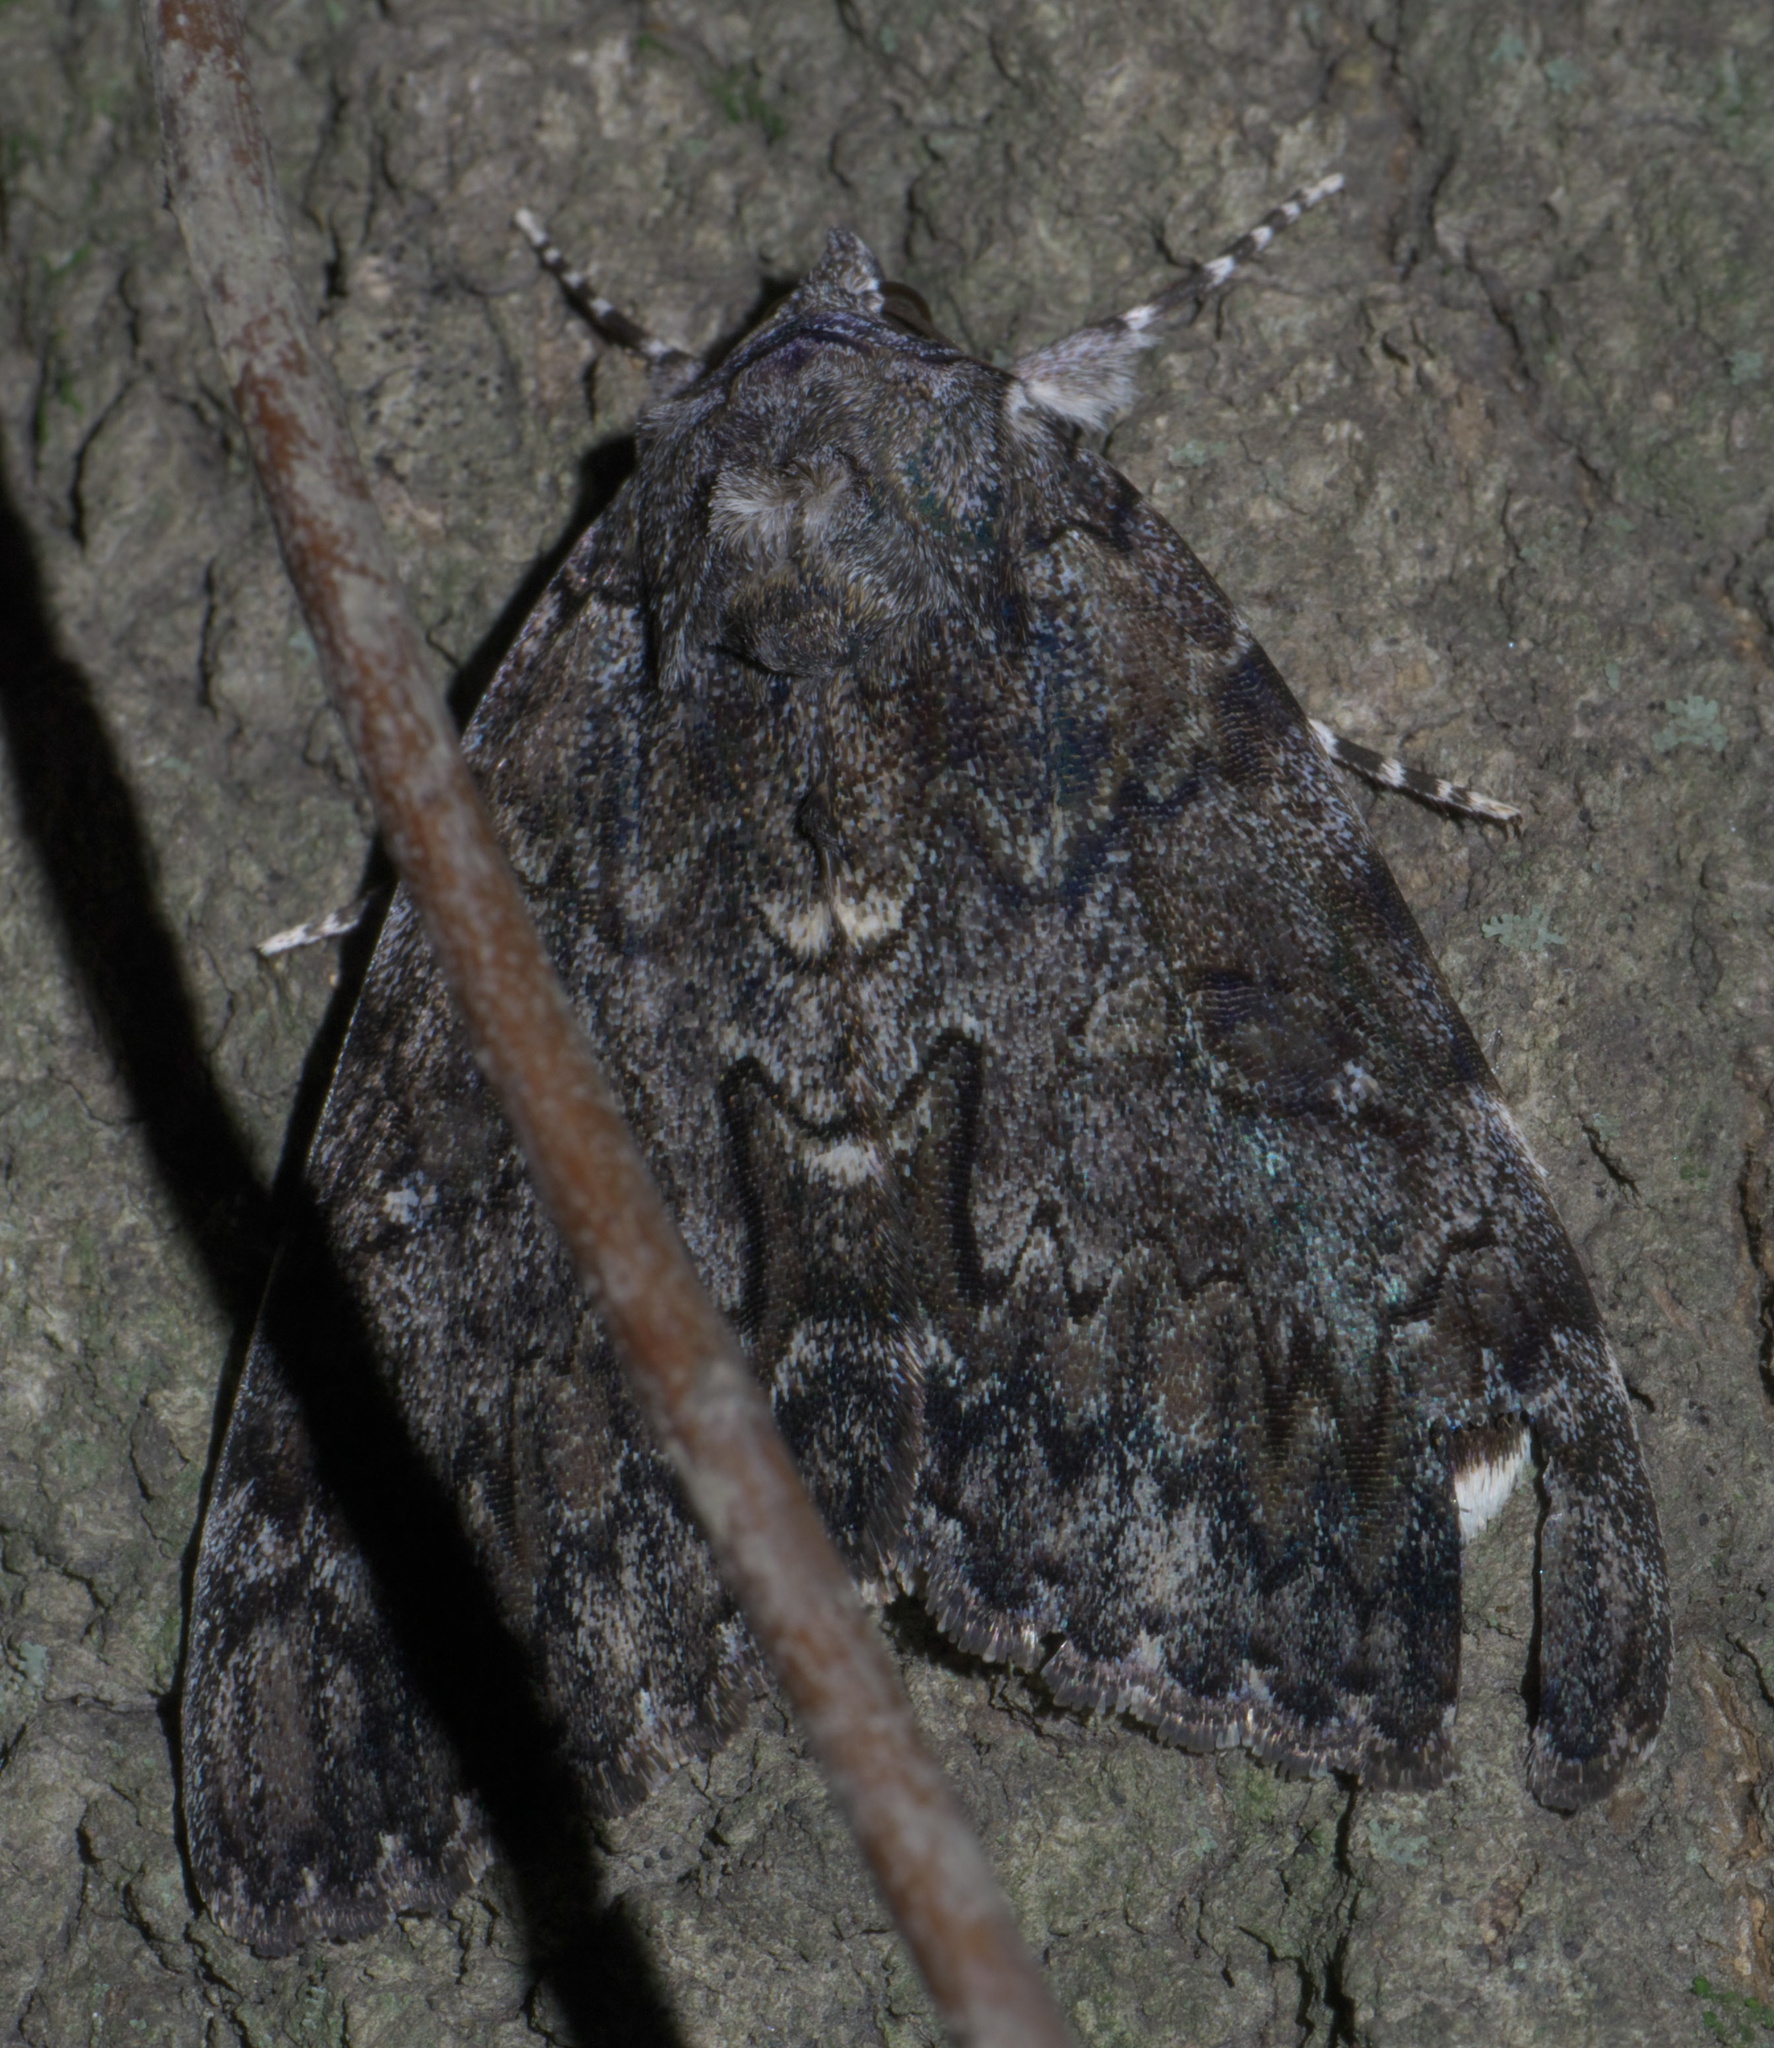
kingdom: Animalia
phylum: Arthropoda
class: Insecta
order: Lepidoptera
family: Erebidae
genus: Catocala
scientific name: Catocala lacrymosa
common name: Tearful underwing
